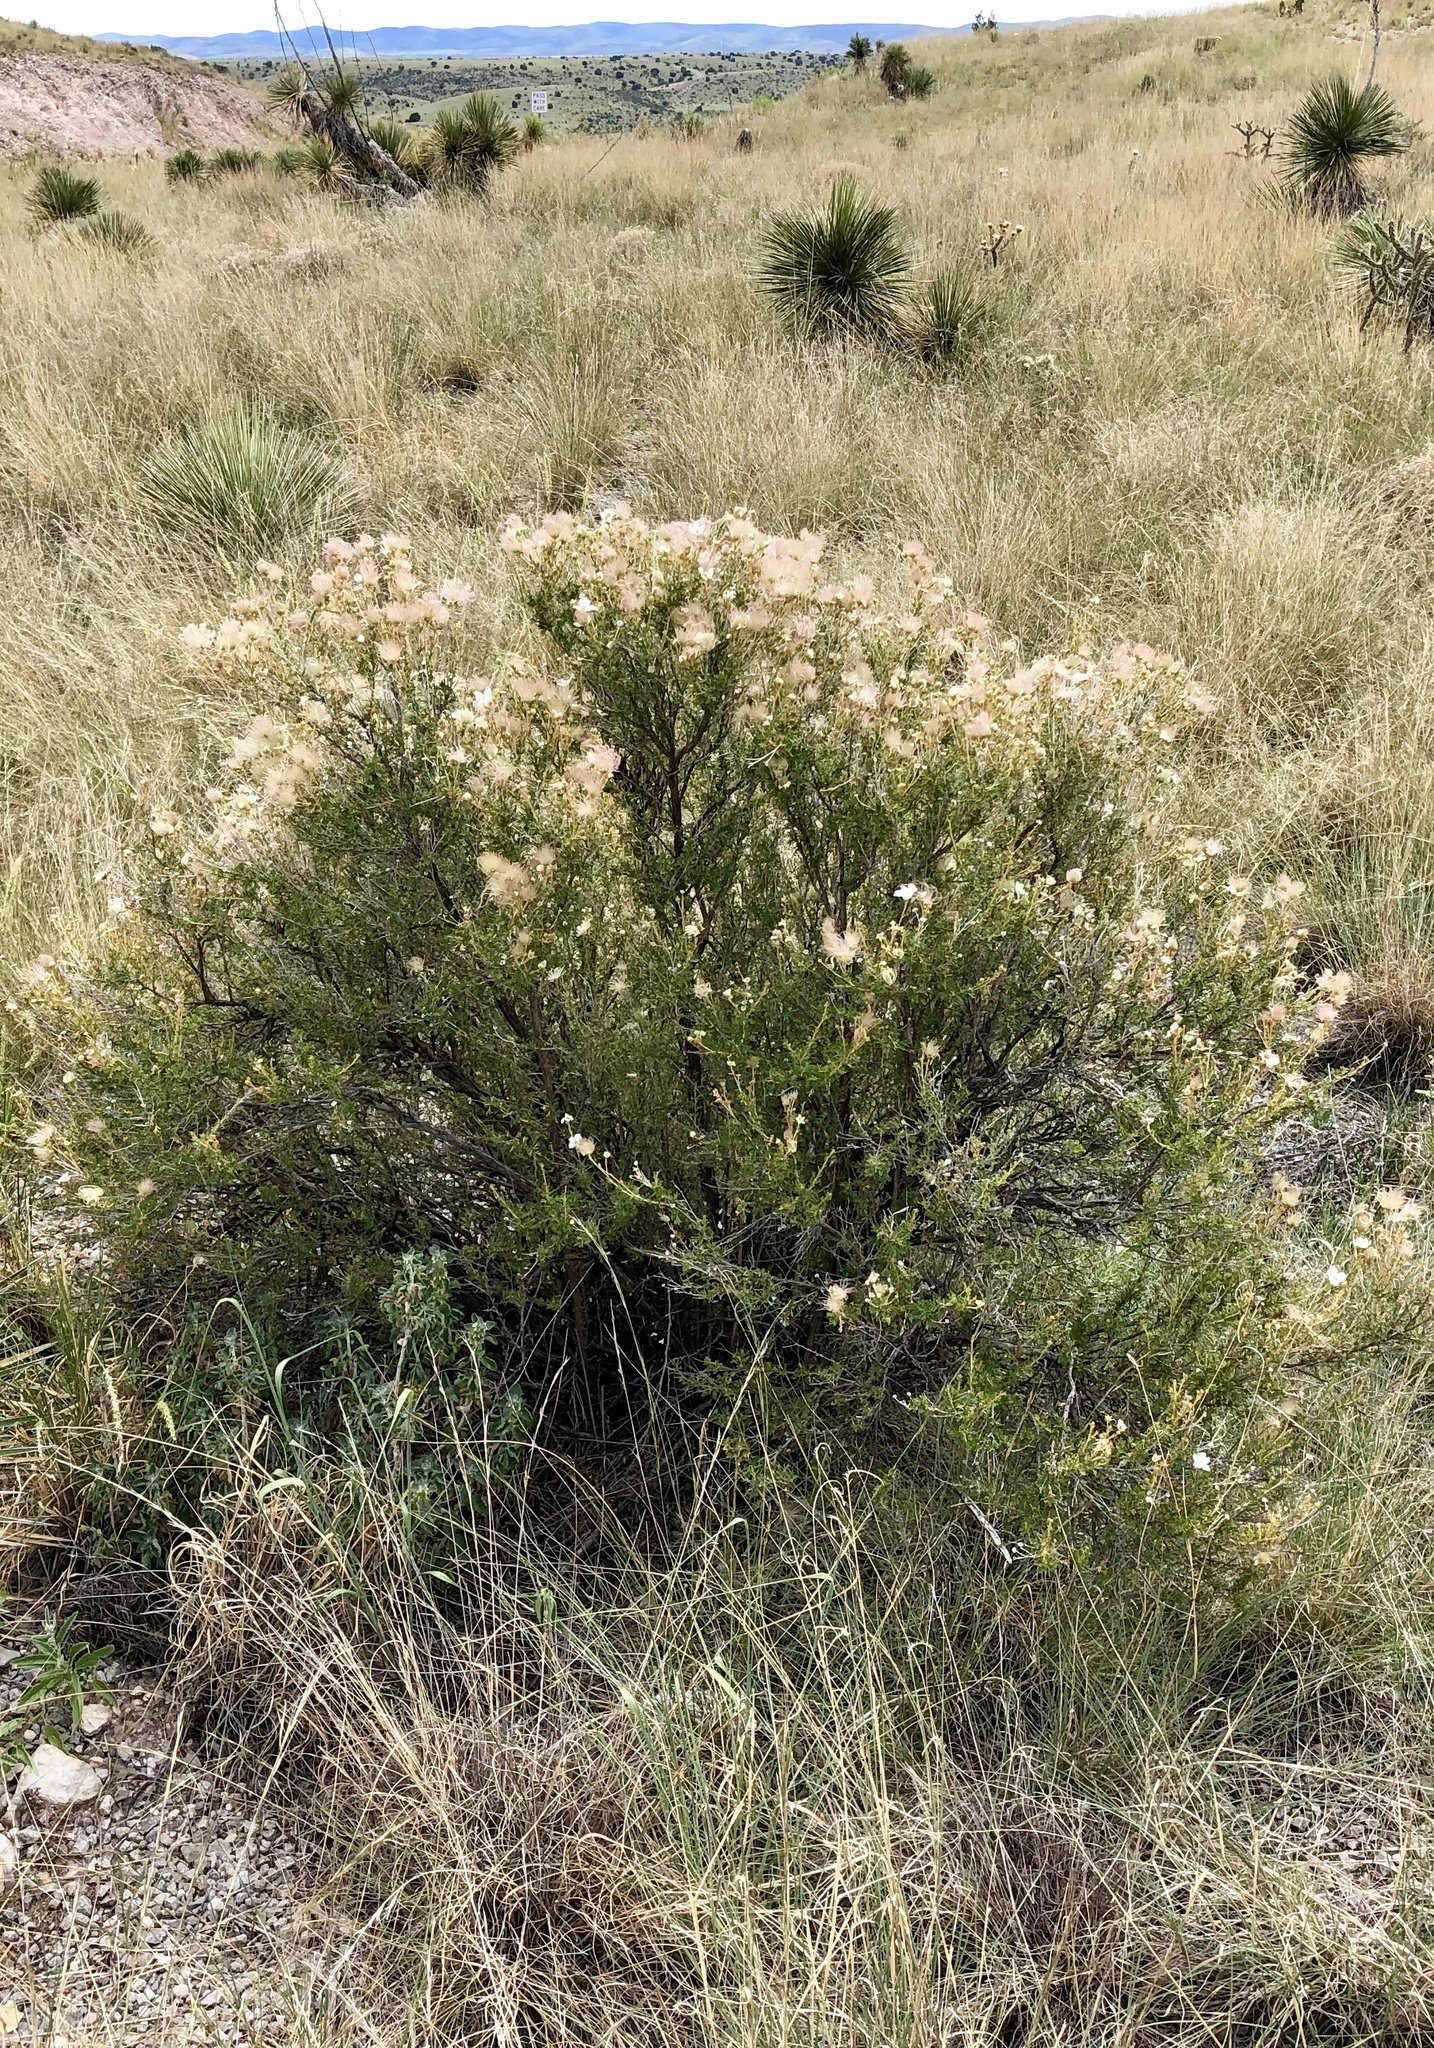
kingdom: Plantae
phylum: Tracheophyta
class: Magnoliopsida
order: Rosales
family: Rosaceae
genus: Fallugia
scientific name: Fallugia paradoxa
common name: Apache-plume
